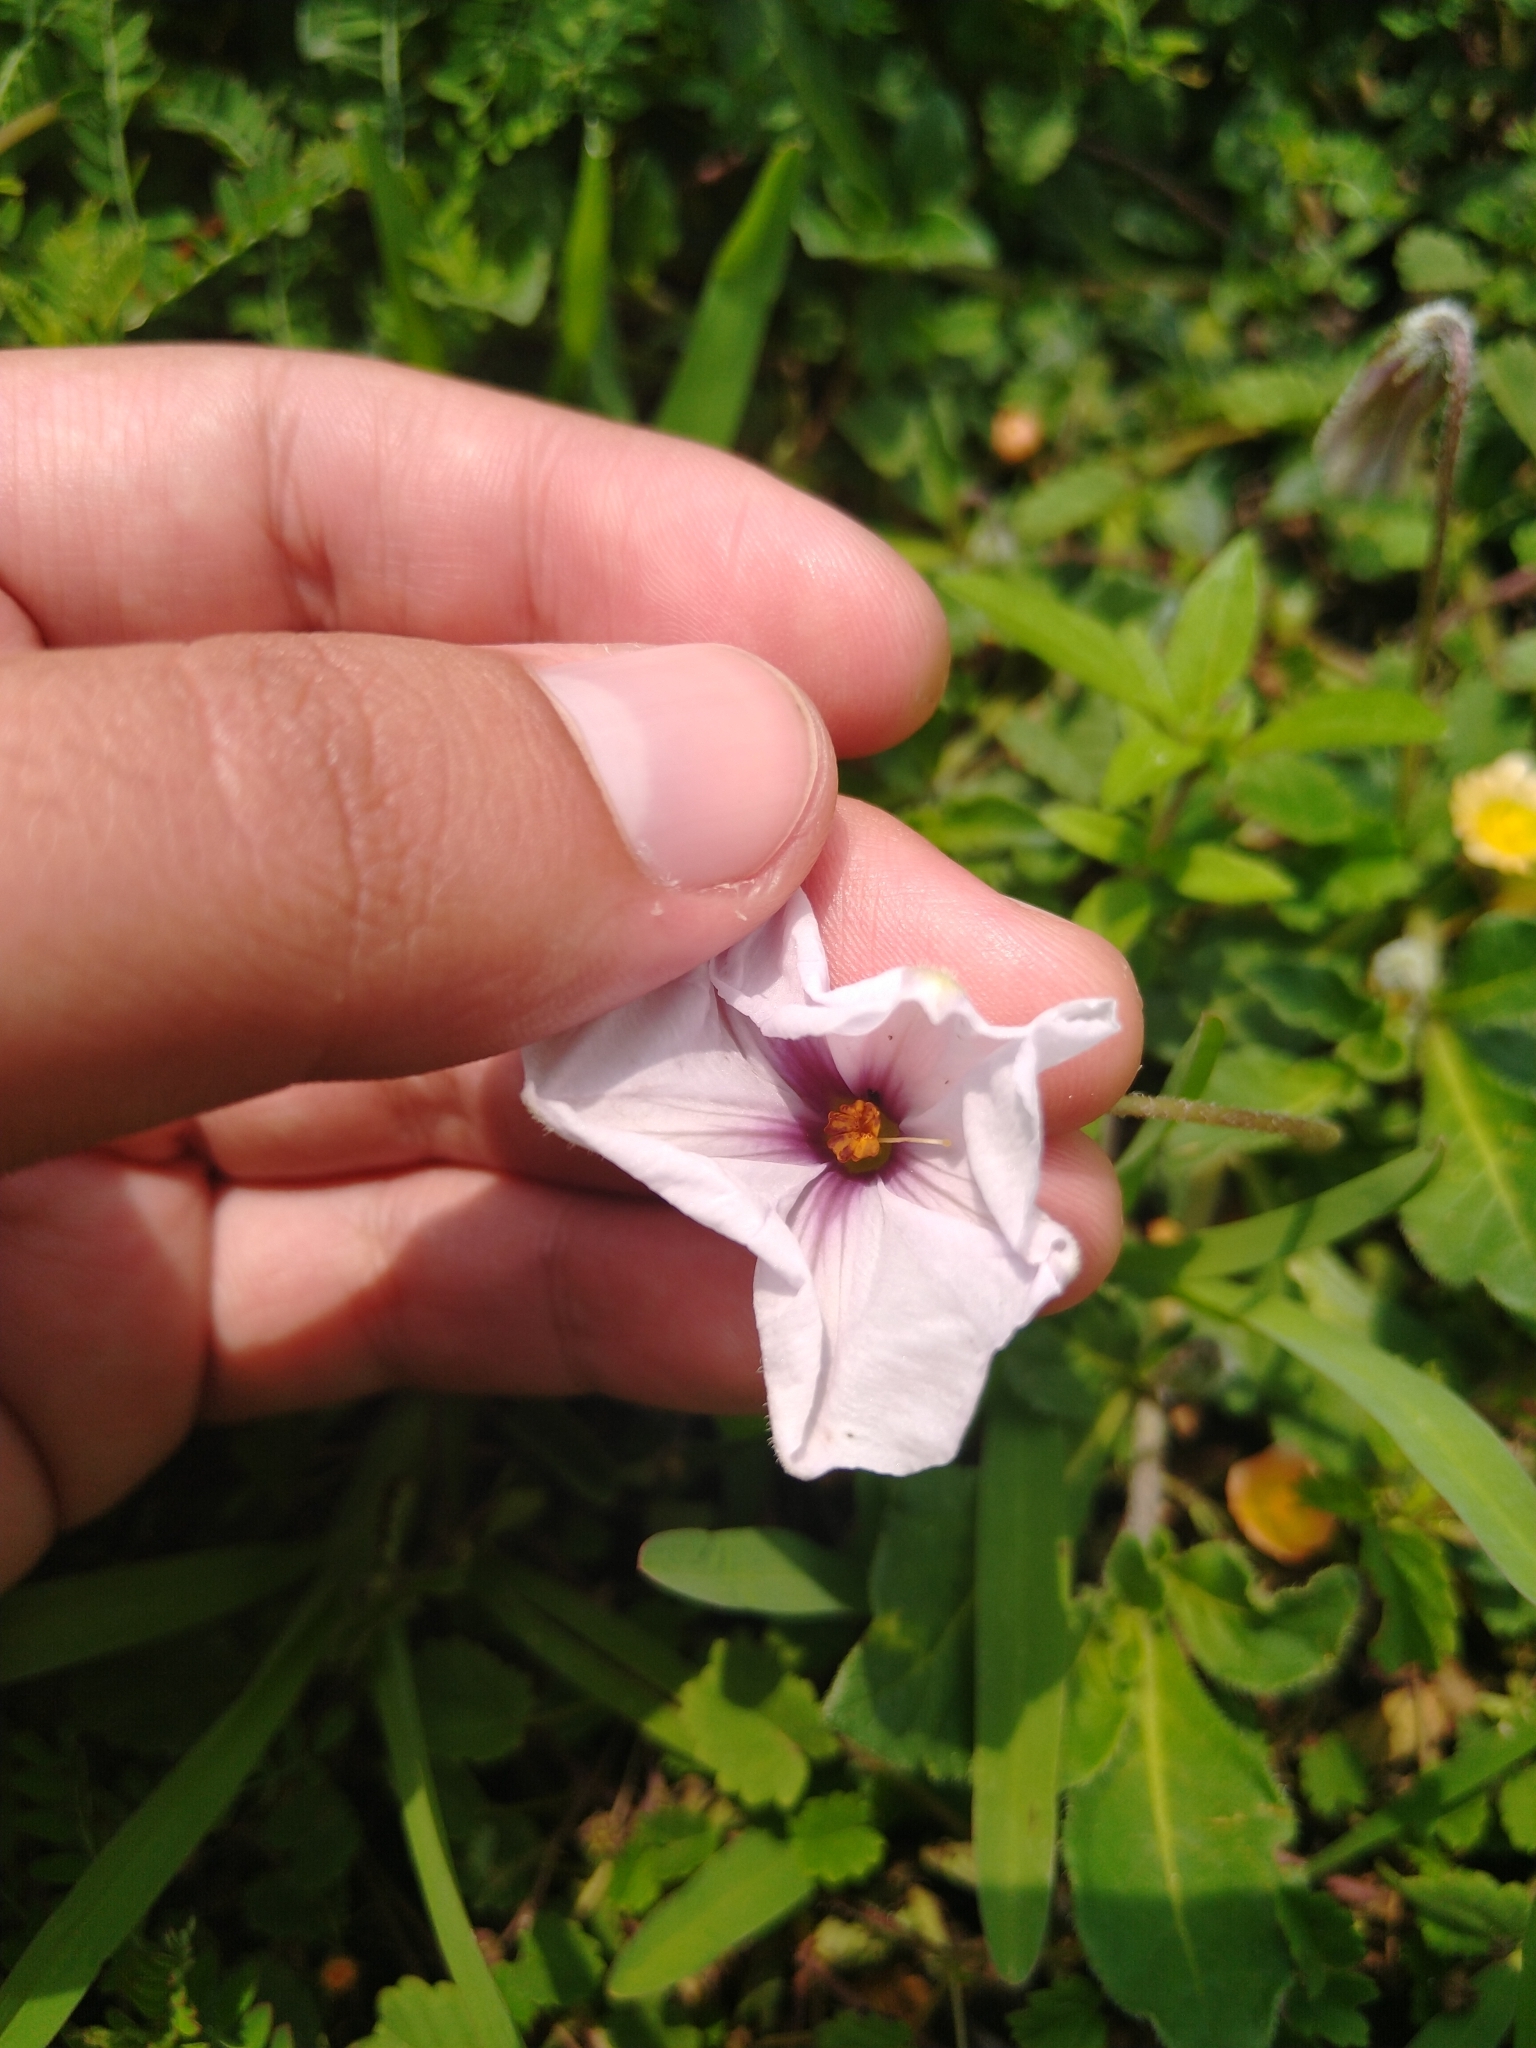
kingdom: Plantae
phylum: Tracheophyta
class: Magnoliopsida
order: Solanales
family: Solanaceae
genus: Lycianthes
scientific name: Lycianthes peduncularis
